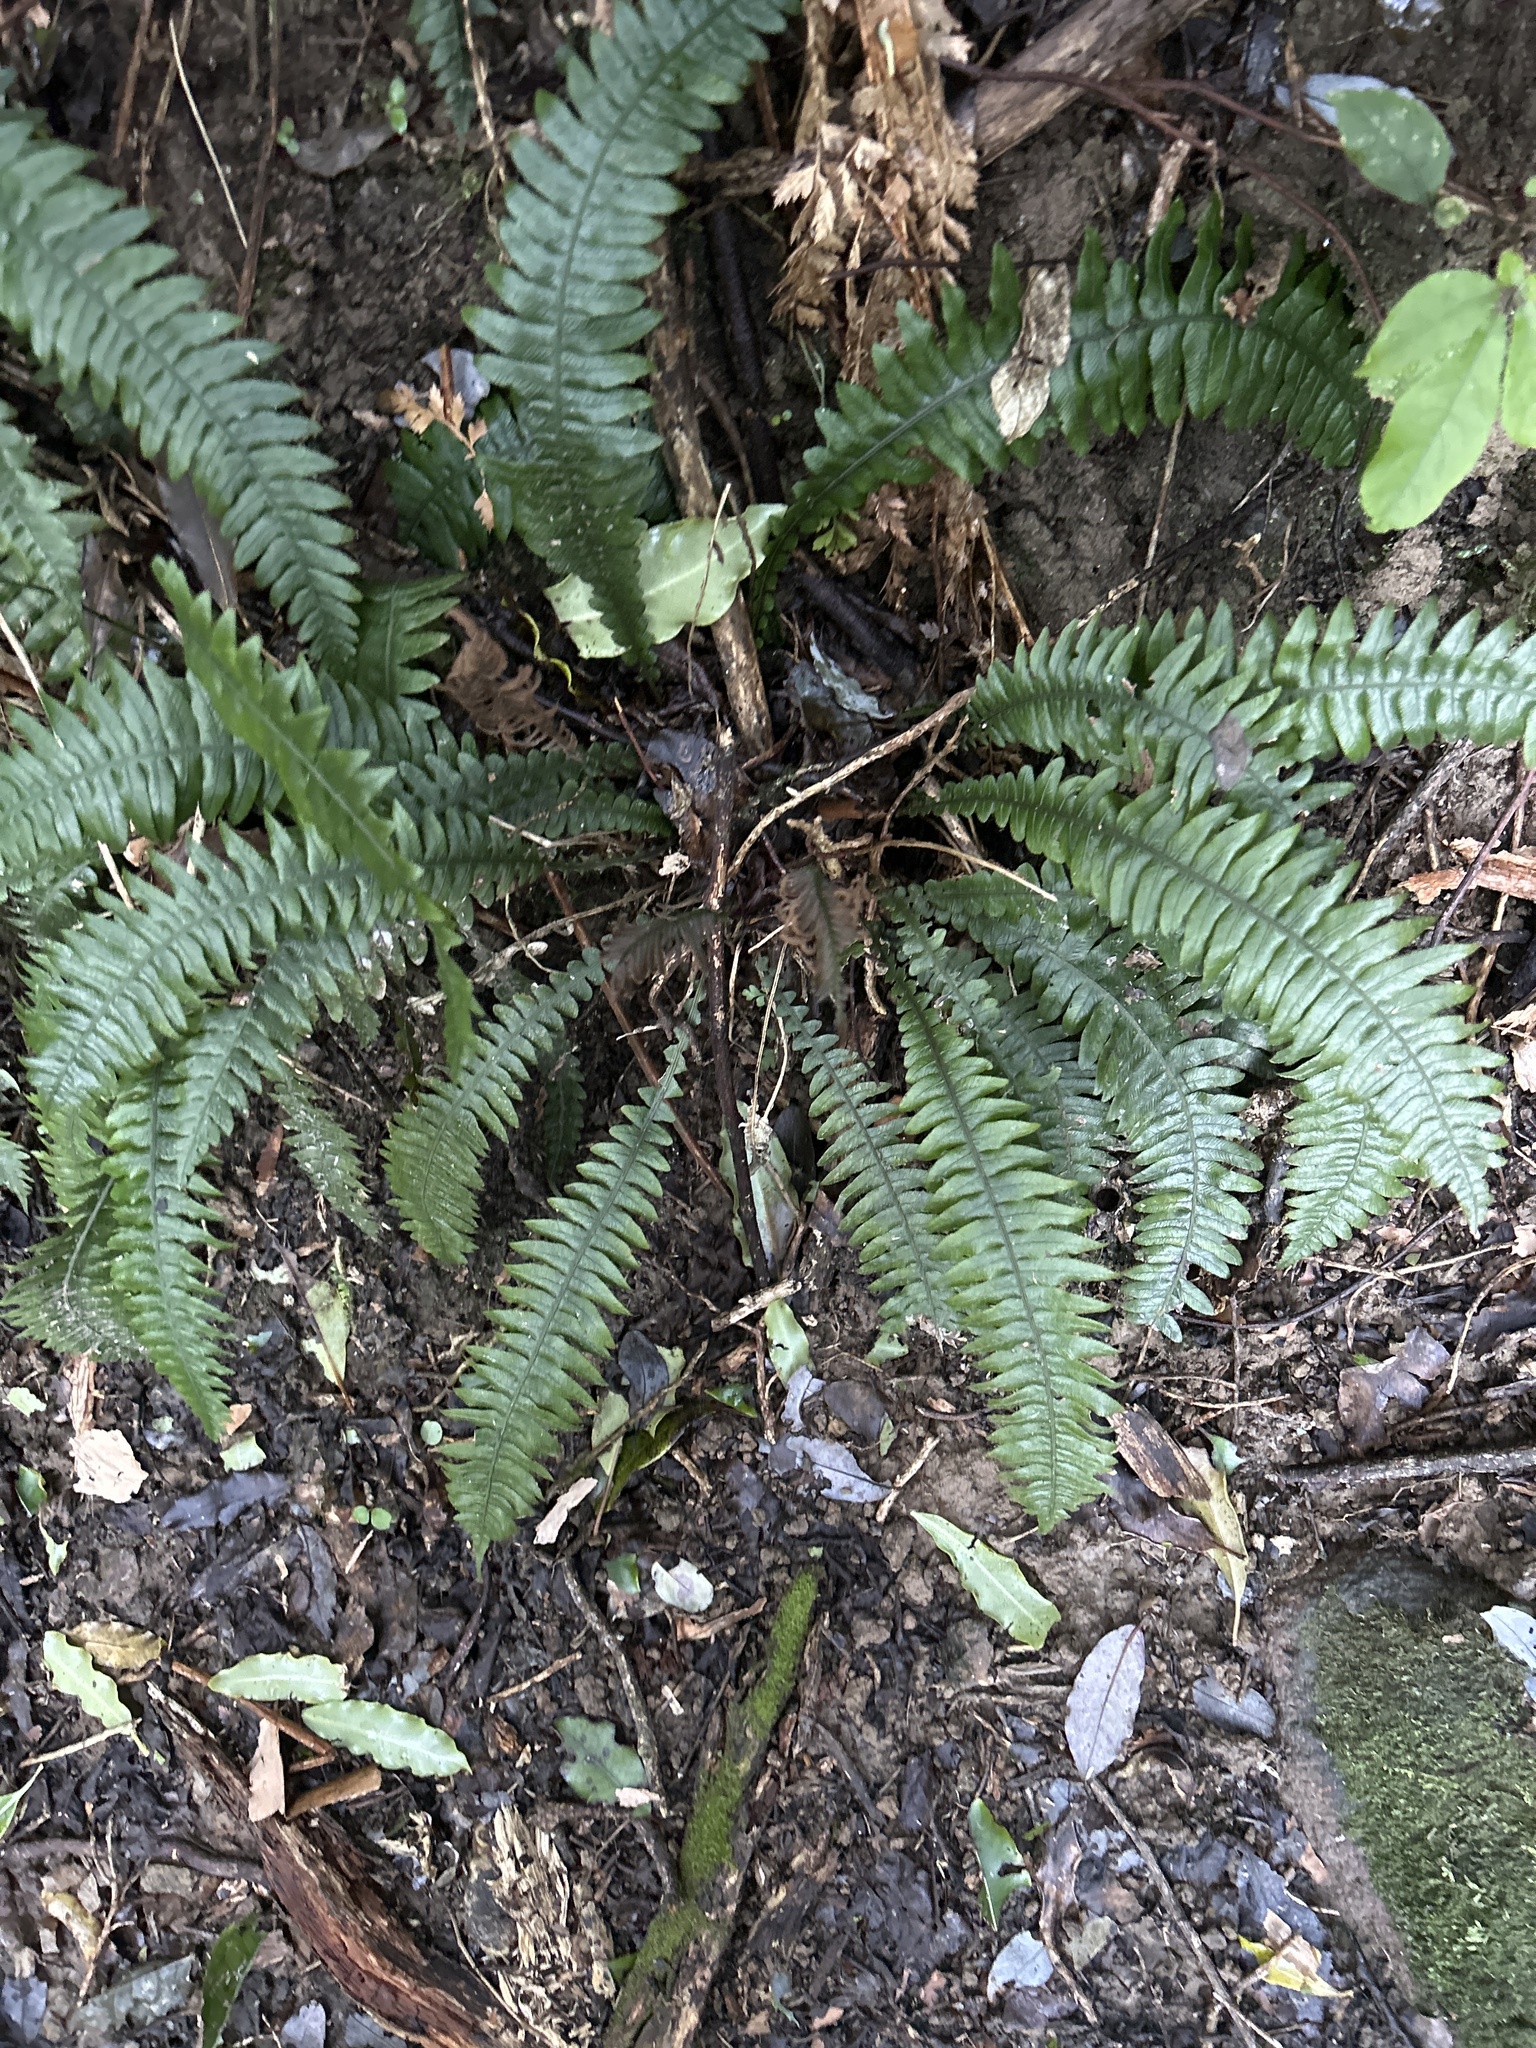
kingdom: Plantae
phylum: Tracheophyta
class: Polypodiopsida
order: Polypodiales
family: Blechnaceae
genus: Austroblechnum
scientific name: Austroblechnum lanceolatum
